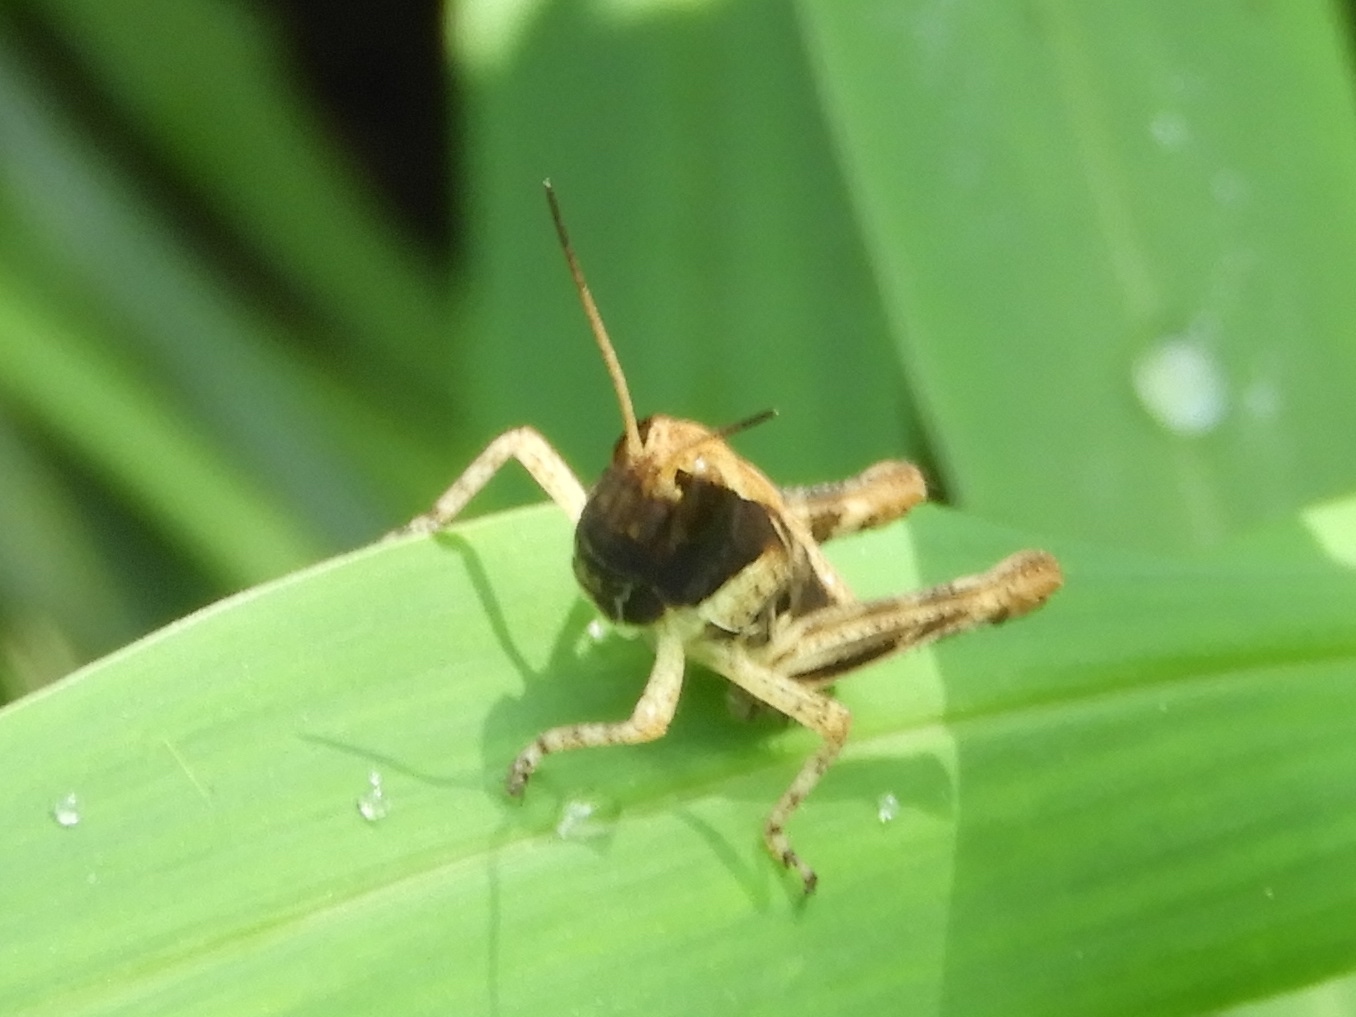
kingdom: Animalia
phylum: Arthropoda
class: Insecta
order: Orthoptera
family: Acrididae
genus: Boopedon
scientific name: Boopedon flaviventris
